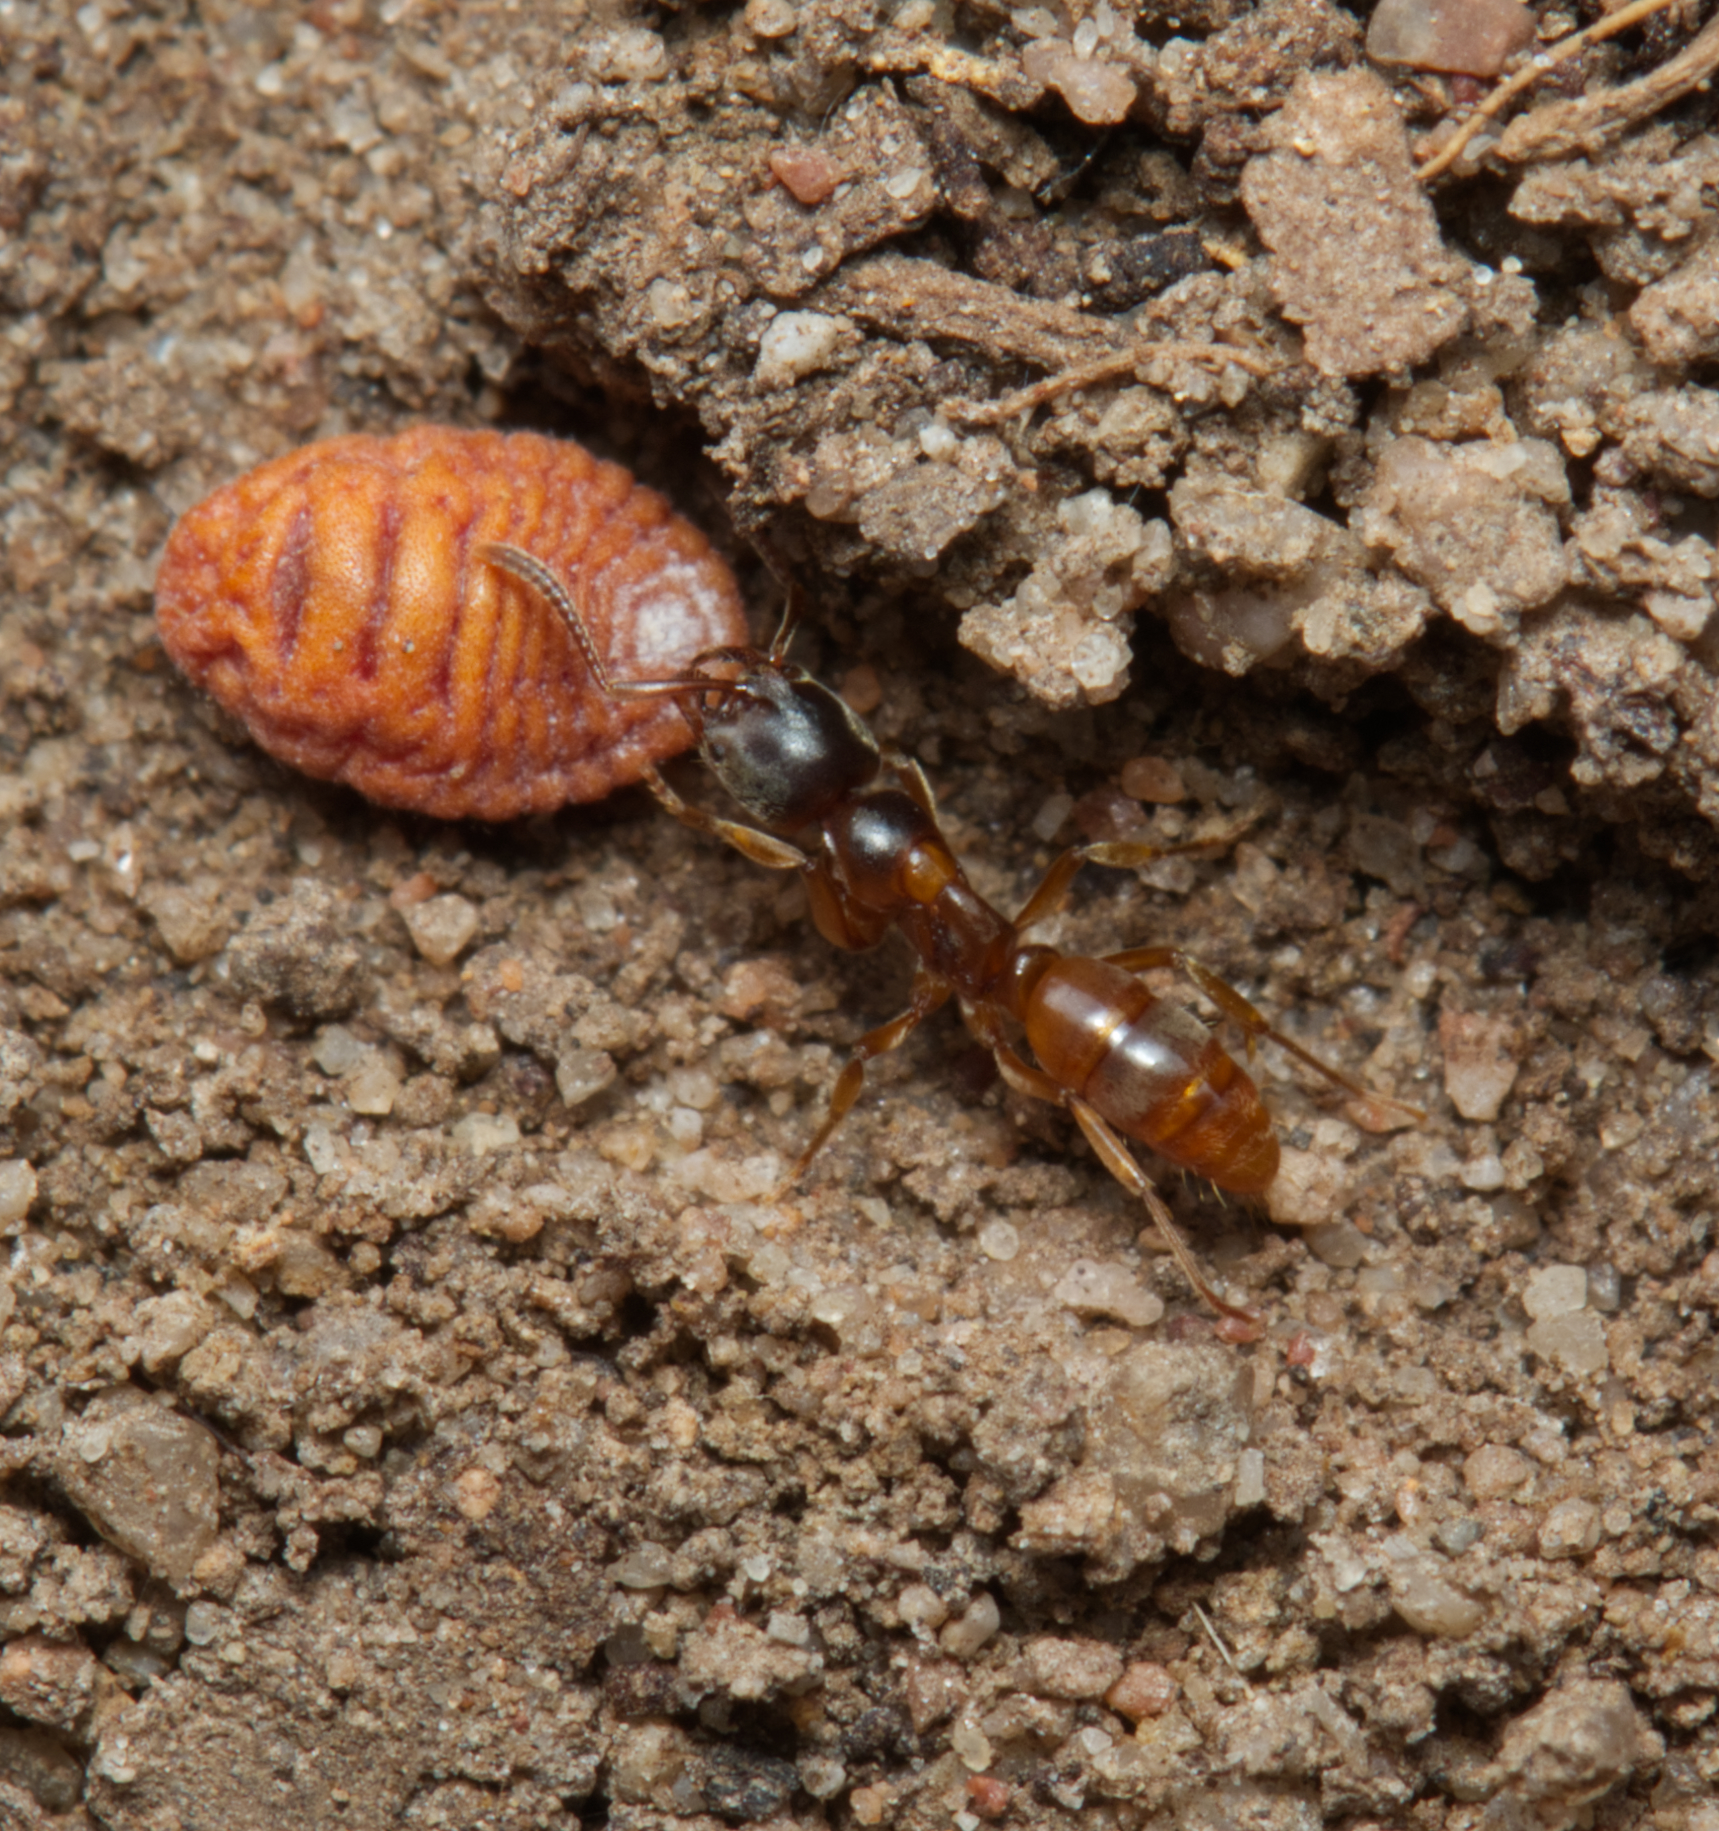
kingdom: Animalia
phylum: Arthropoda
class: Insecta
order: Hymenoptera
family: Formicidae
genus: Brachyponera
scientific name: Brachyponera
